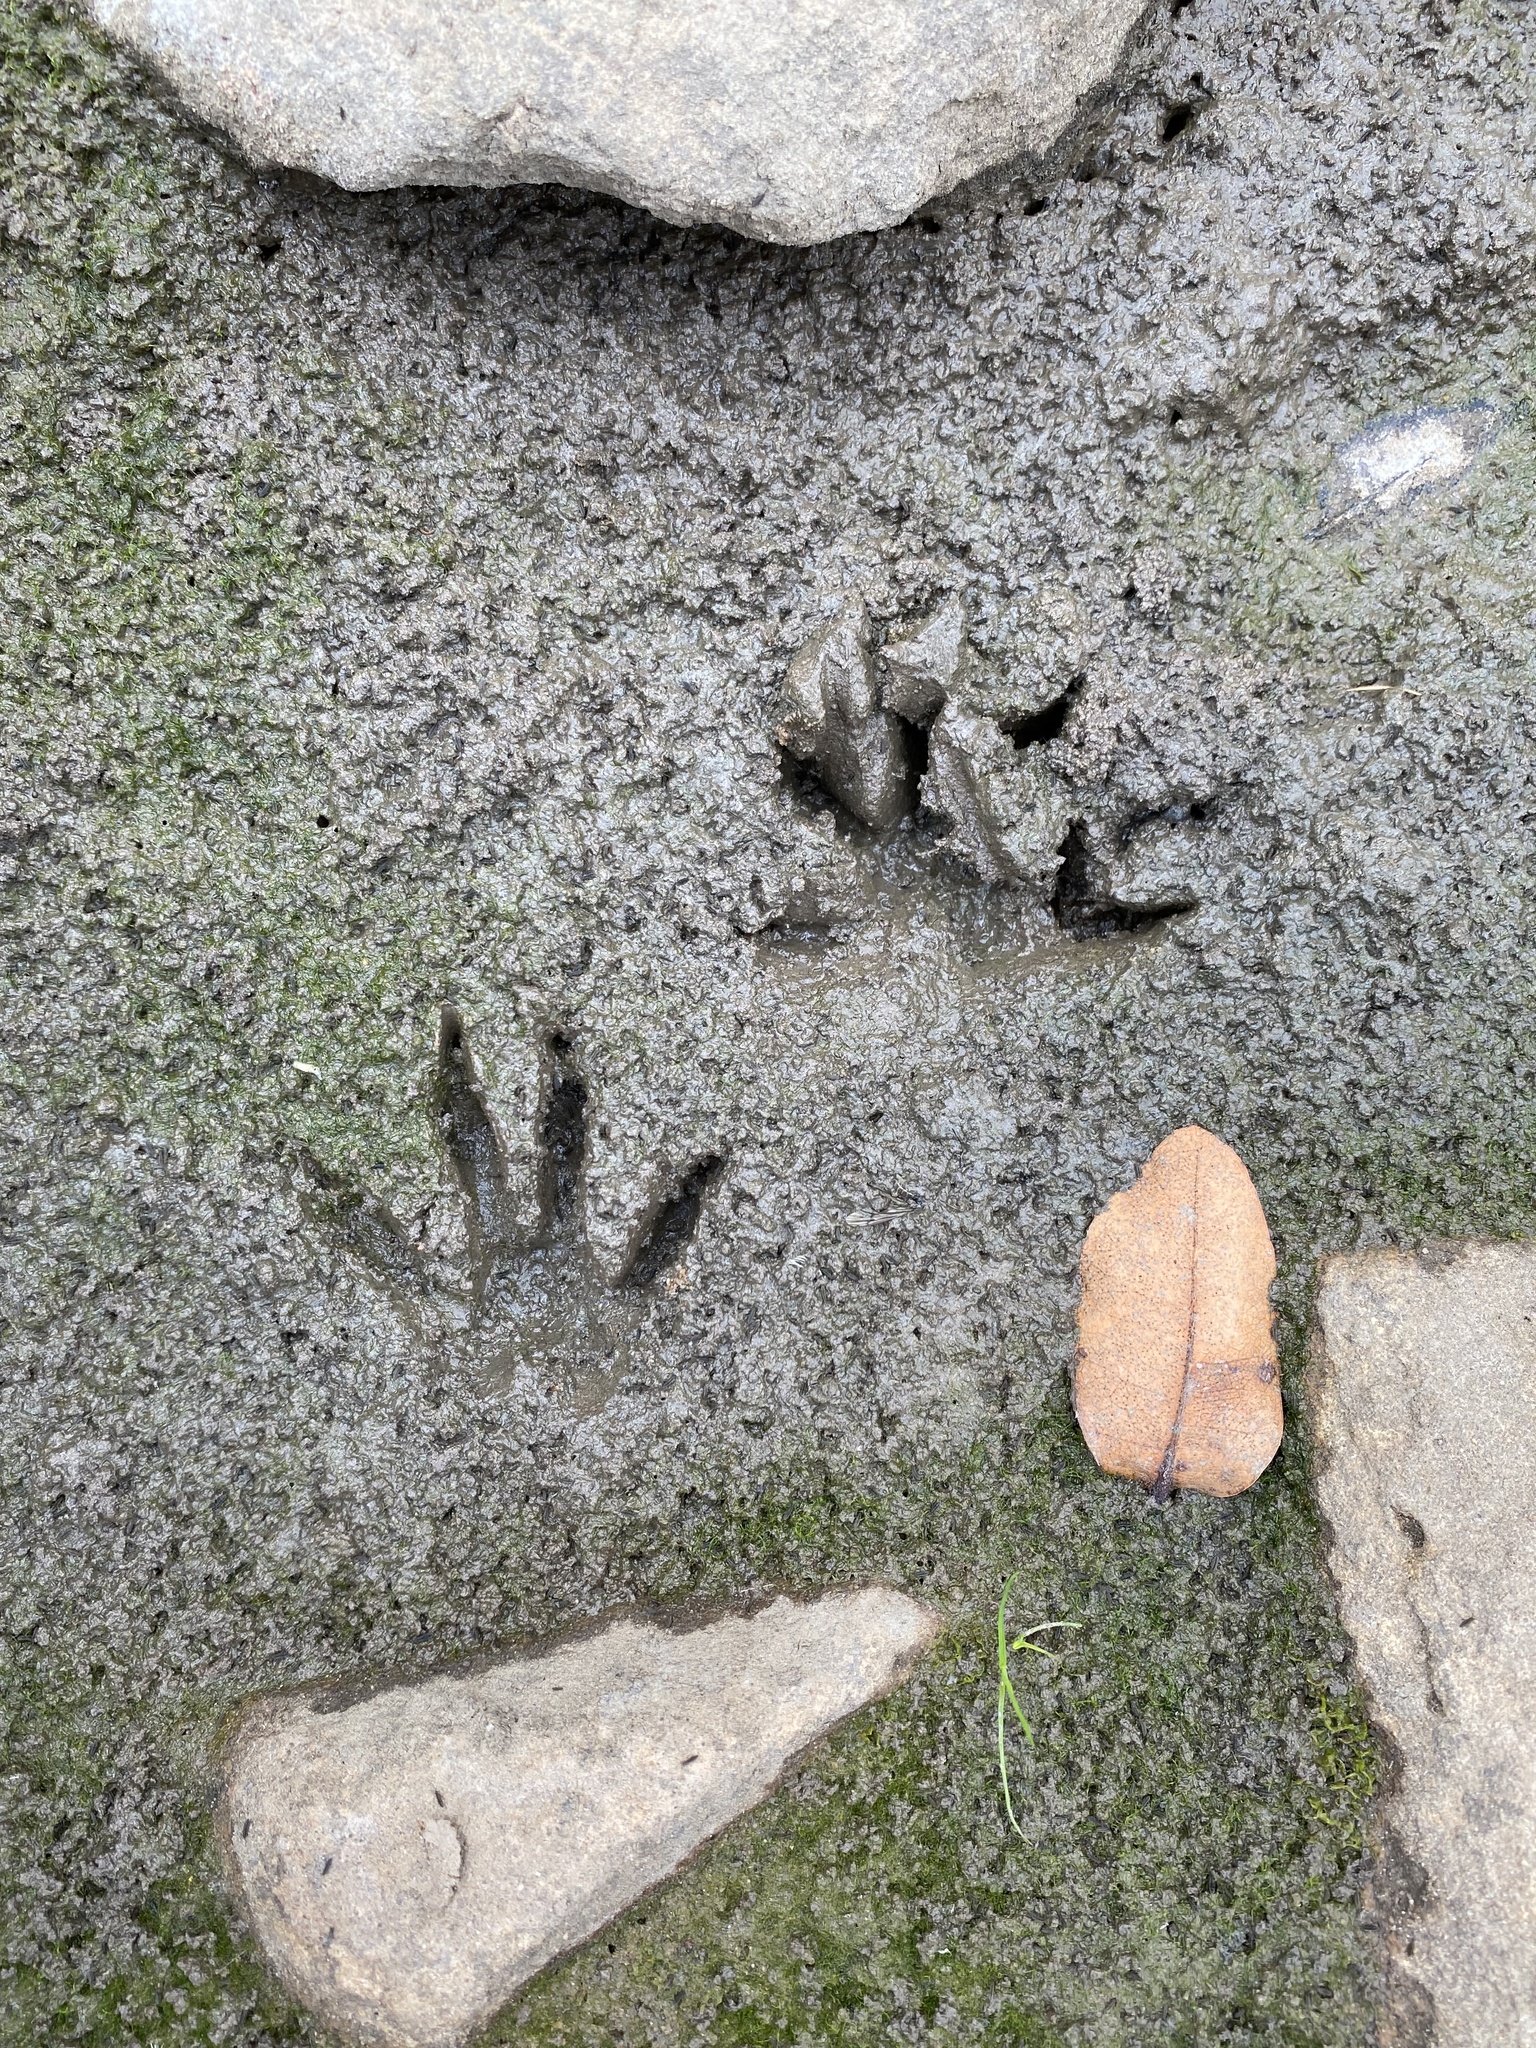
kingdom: Animalia
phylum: Chordata
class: Mammalia
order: Carnivora
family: Herpestidae
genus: Atilax
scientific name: Atilax paludinosus
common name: Marsh mongoose
